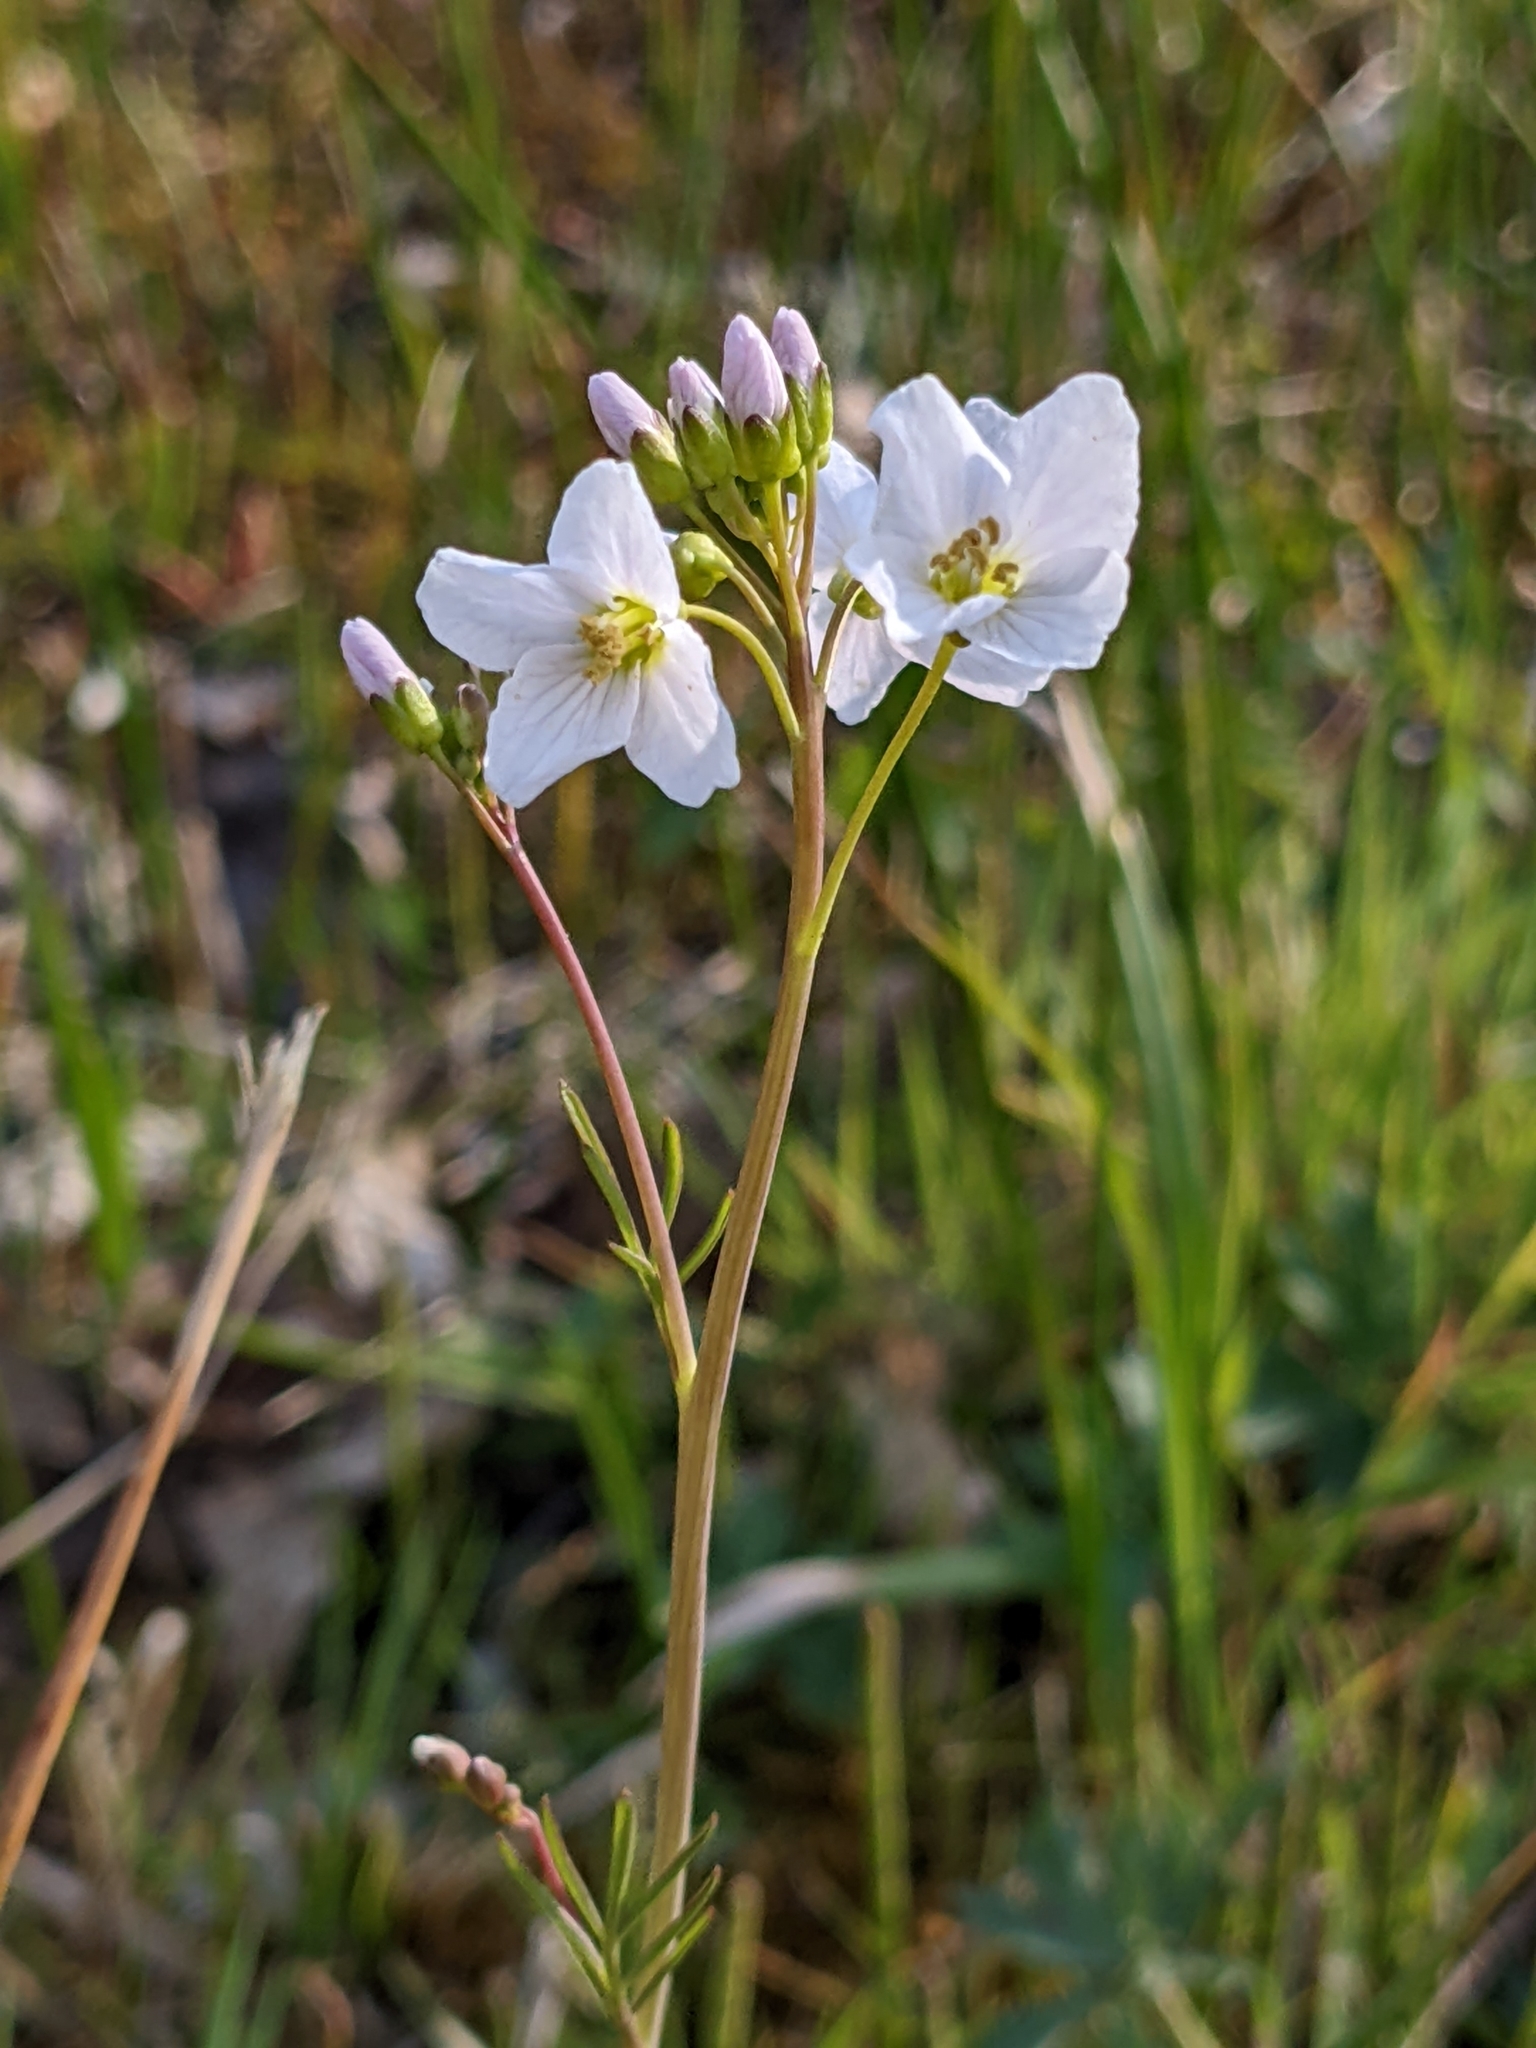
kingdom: Plantae
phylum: Tracheophyta
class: Magnoliopsida
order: Brassicales
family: Brassicaceae
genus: Cardamine
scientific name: Cardamine pratensis
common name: Cuckoo flower
